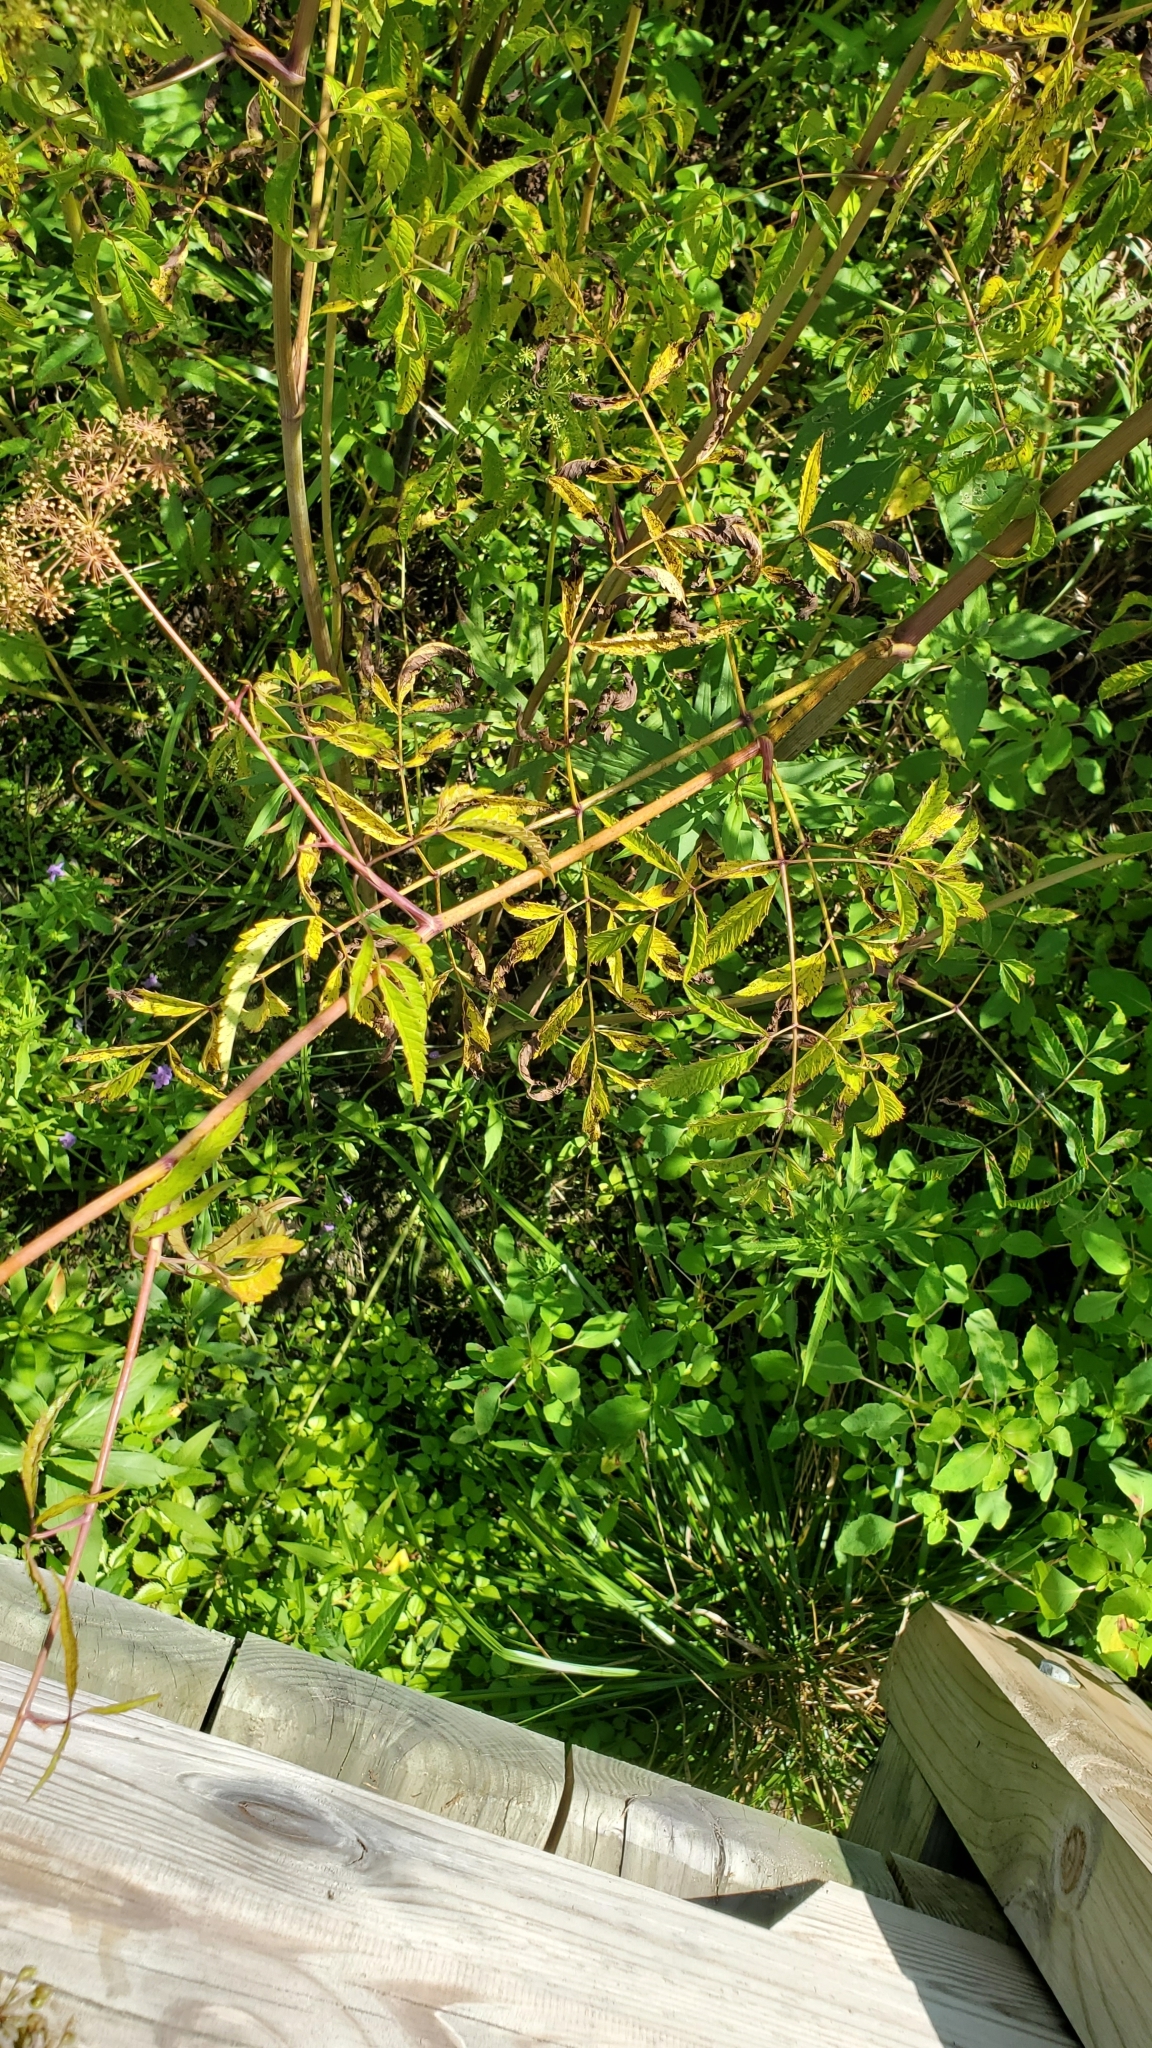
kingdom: Plantae
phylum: Tracheophyta
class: Magnoliopsida
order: Apiales
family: Apiaceae
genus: Cicuta
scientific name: Cicuta maculata
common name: Spotted cowbane
